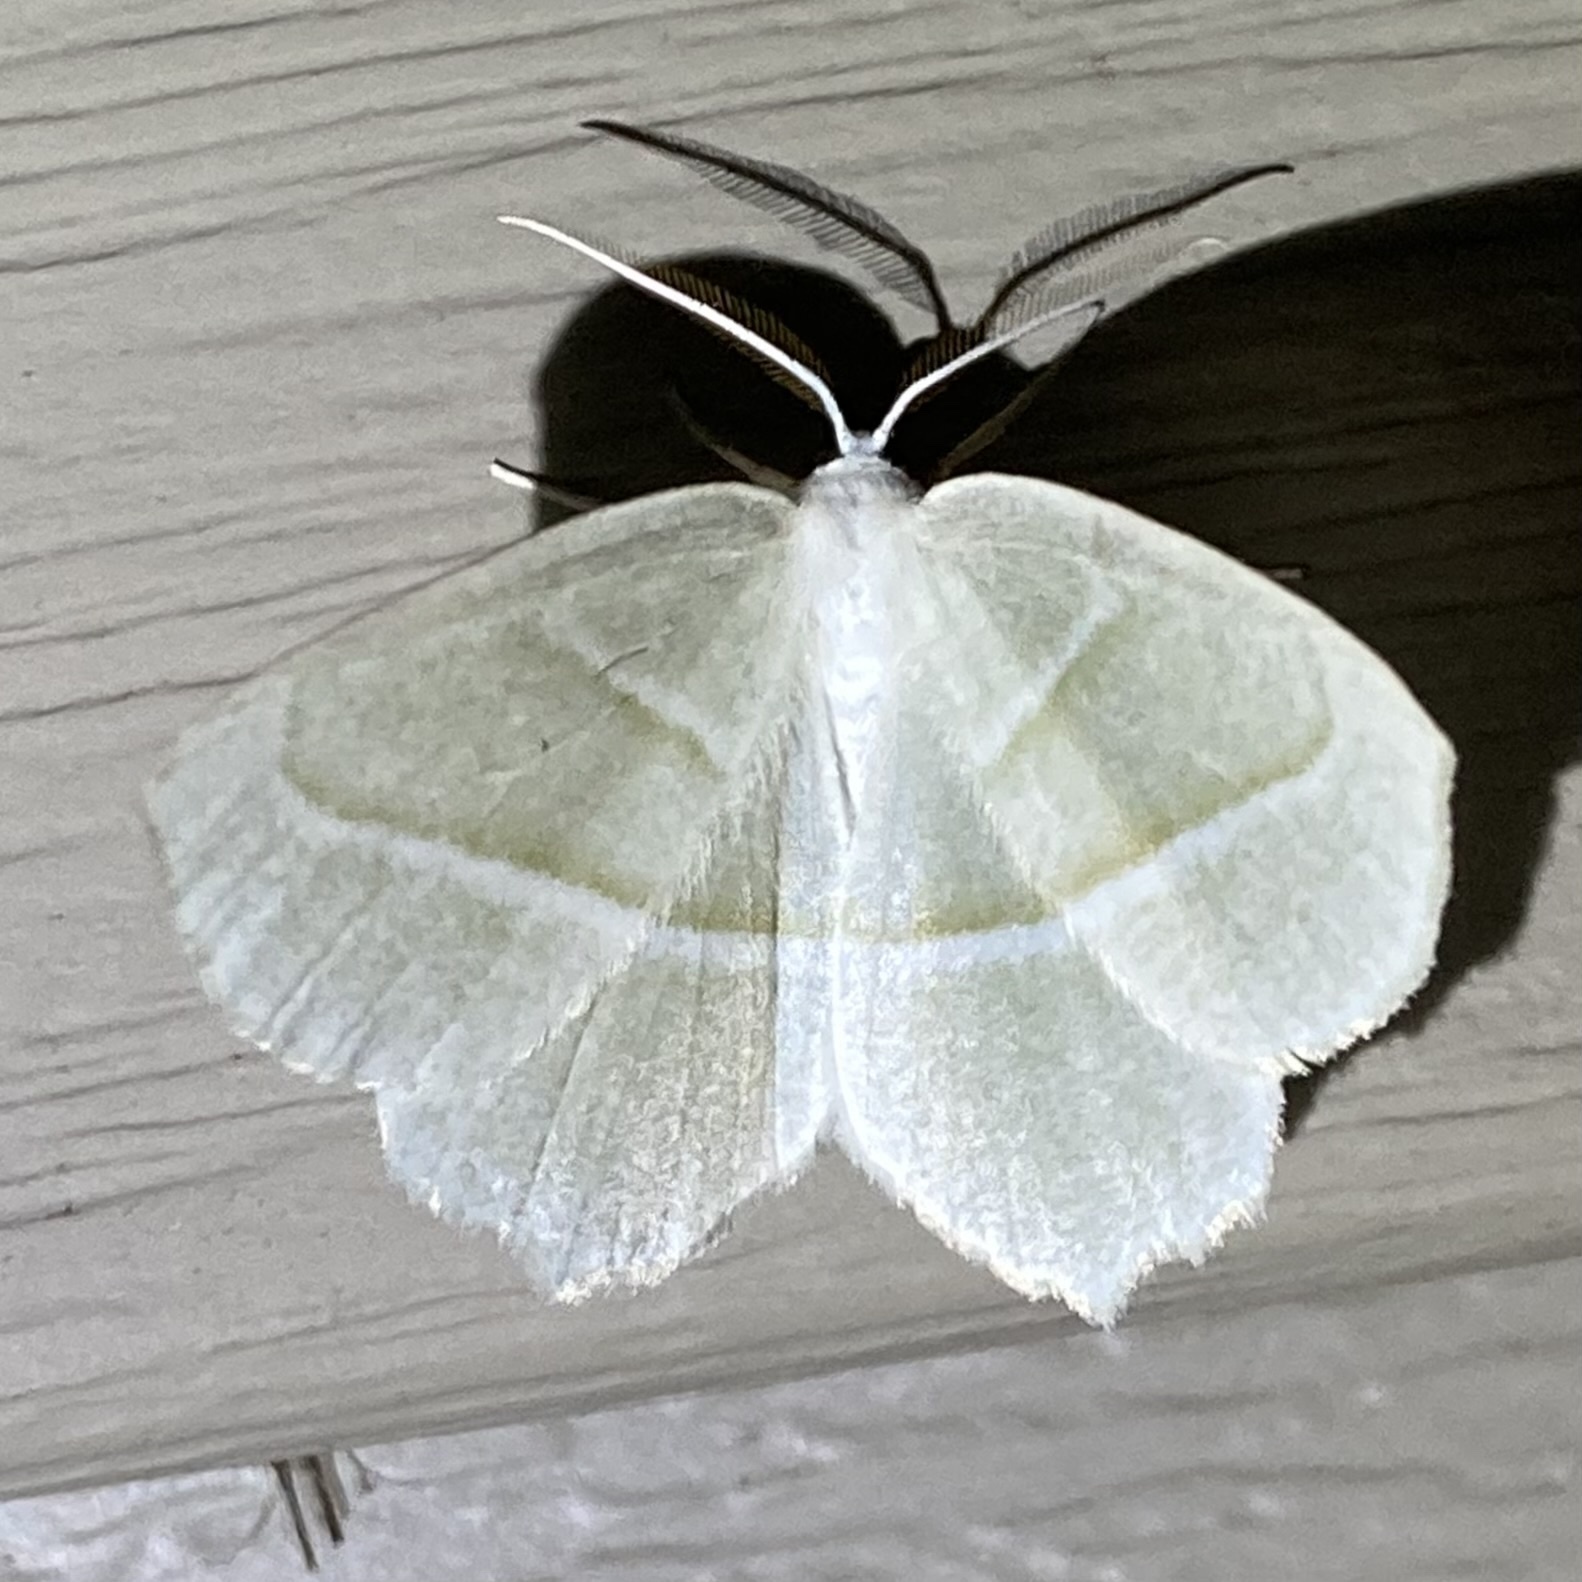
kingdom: Animalia
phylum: Arthropoda
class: Insecta
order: Lepidoptera
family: Geometridae
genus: Campaea
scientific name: Campaea perlata
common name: Fringed looper
